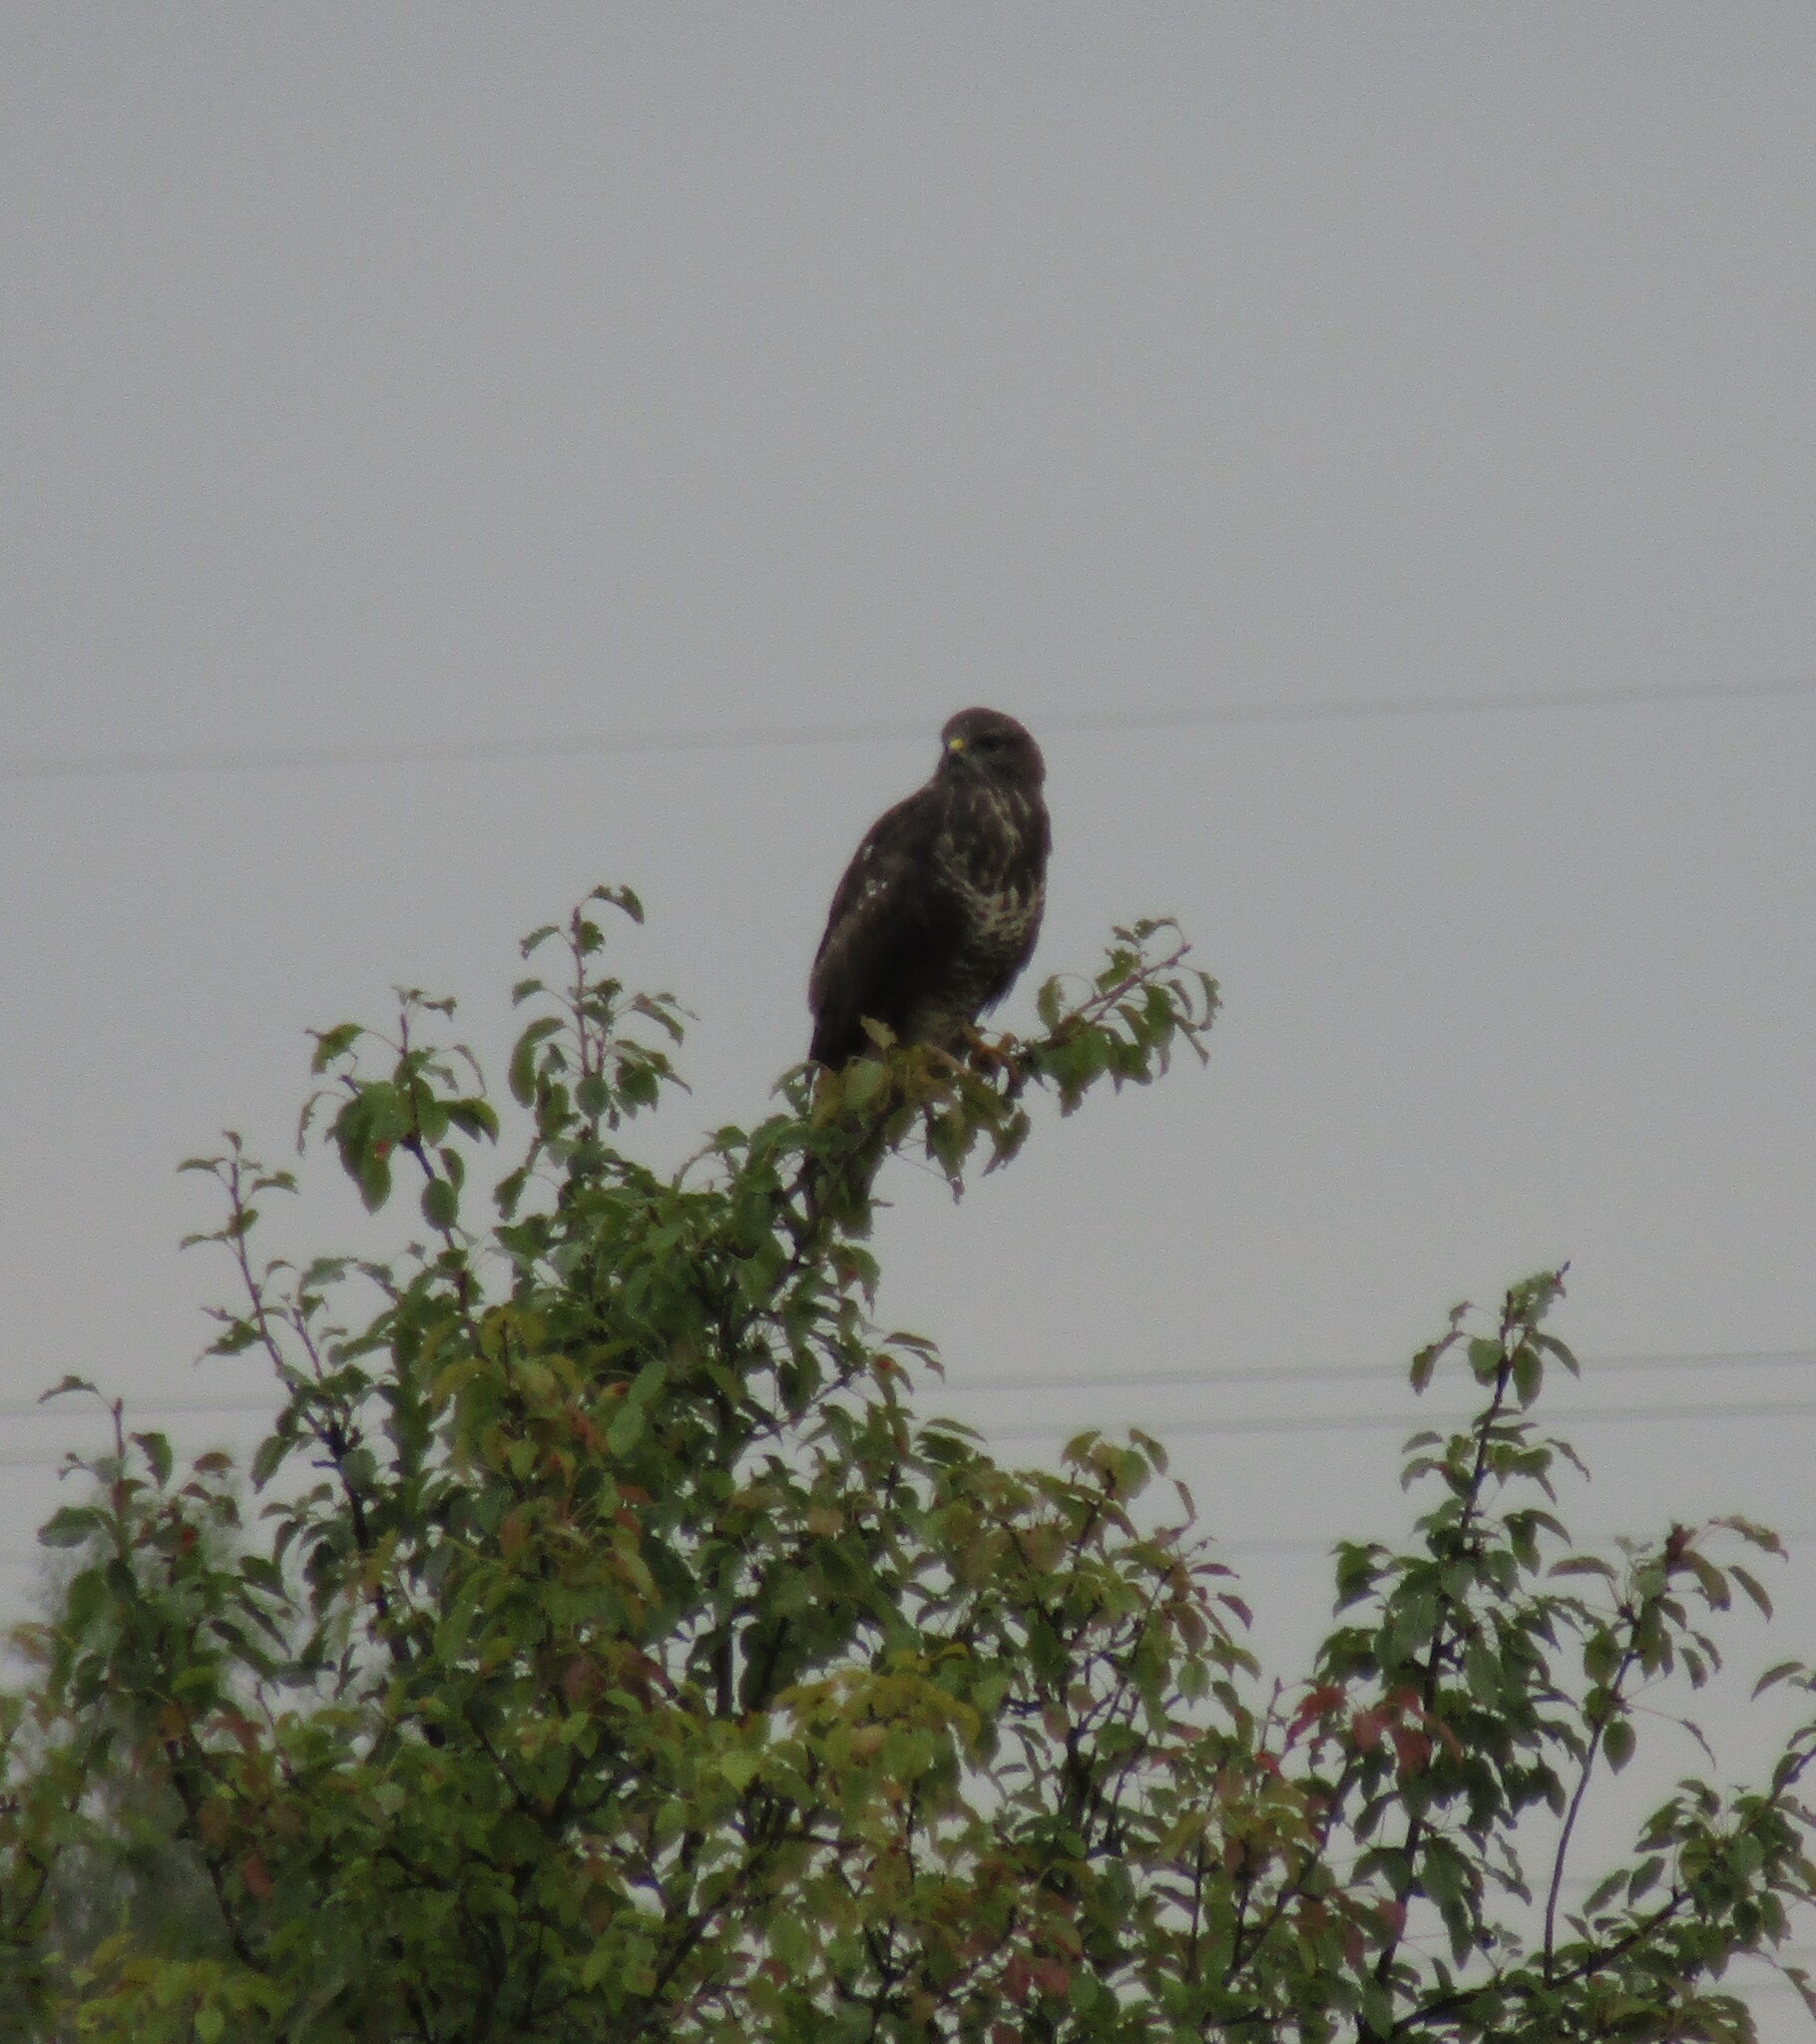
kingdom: Animalia
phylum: Chordata
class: Aves
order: Accipitriformes
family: Accipitridae
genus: Buteo
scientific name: Buteo buteo
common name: Common buzzard
